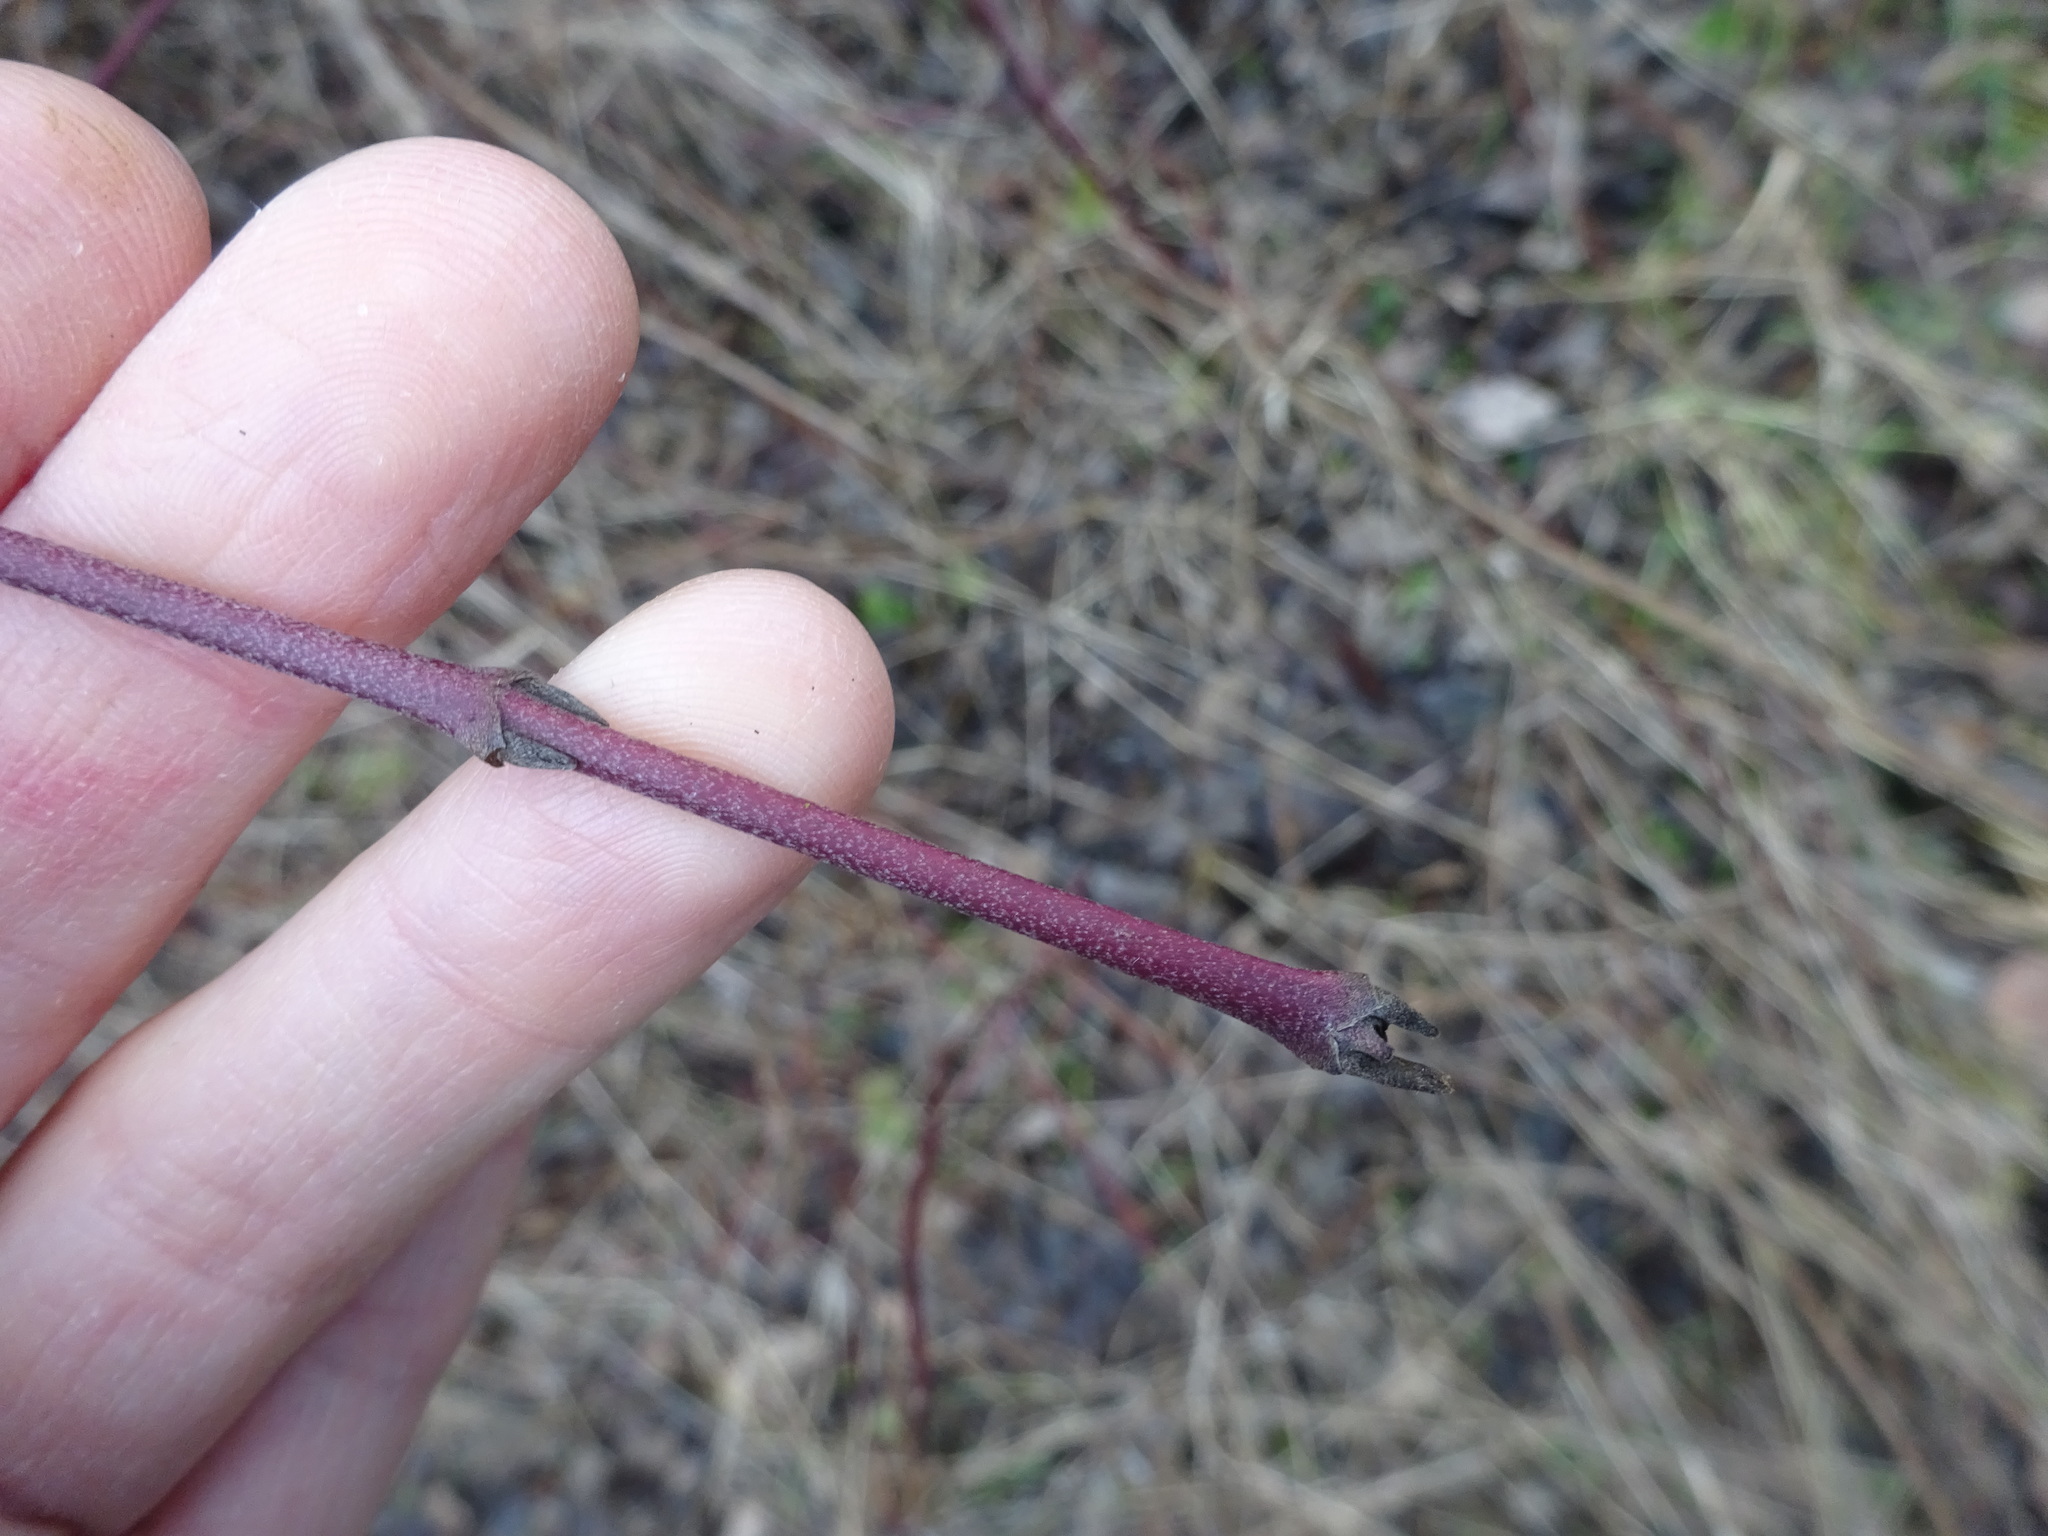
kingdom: Plantae
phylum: Tracheophyta
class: Magnoliopsida
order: Cornales
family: Cornaceae
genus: Cornus
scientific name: Cornus sanguinea
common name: Dogwood
